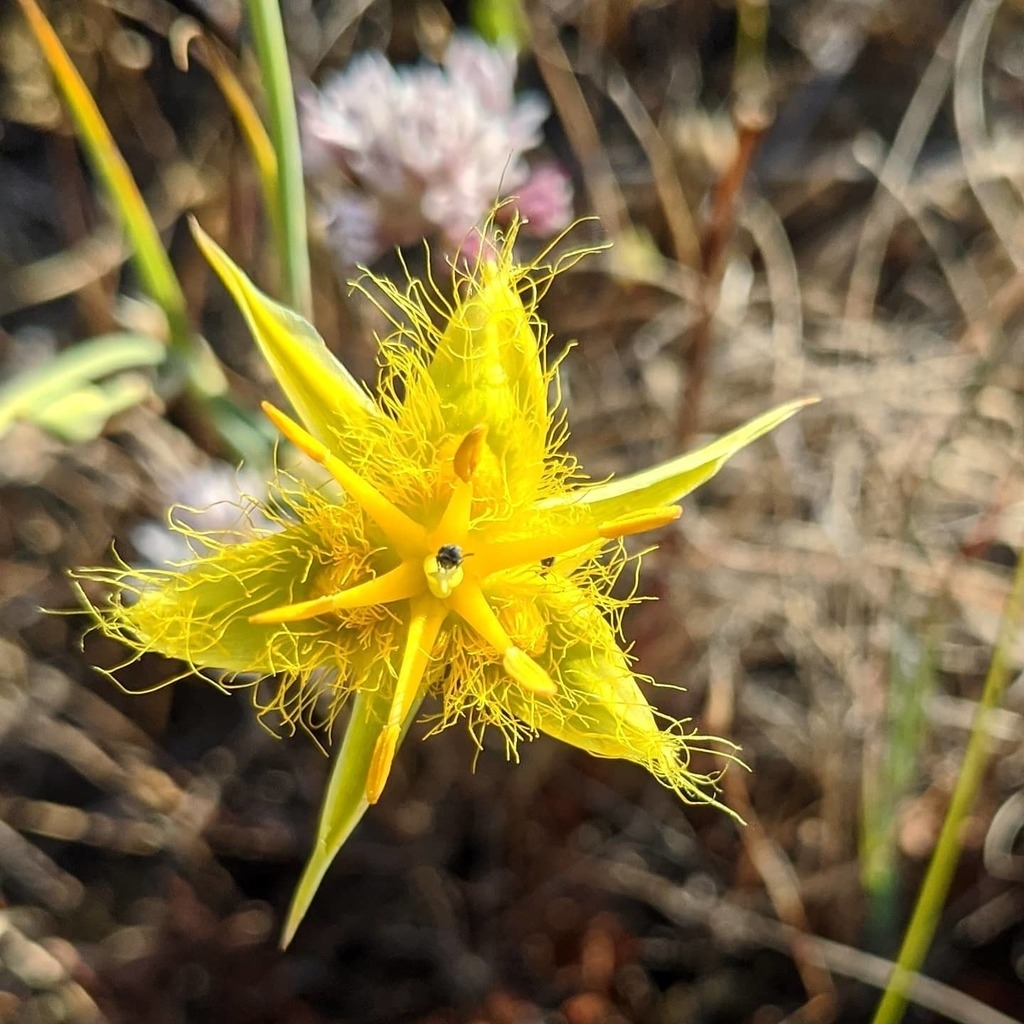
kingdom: Plantae
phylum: Tracheophyta
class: Liliopsida
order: Liliales
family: Liliaceae
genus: Calochortus
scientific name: Calochortus obispoensis
